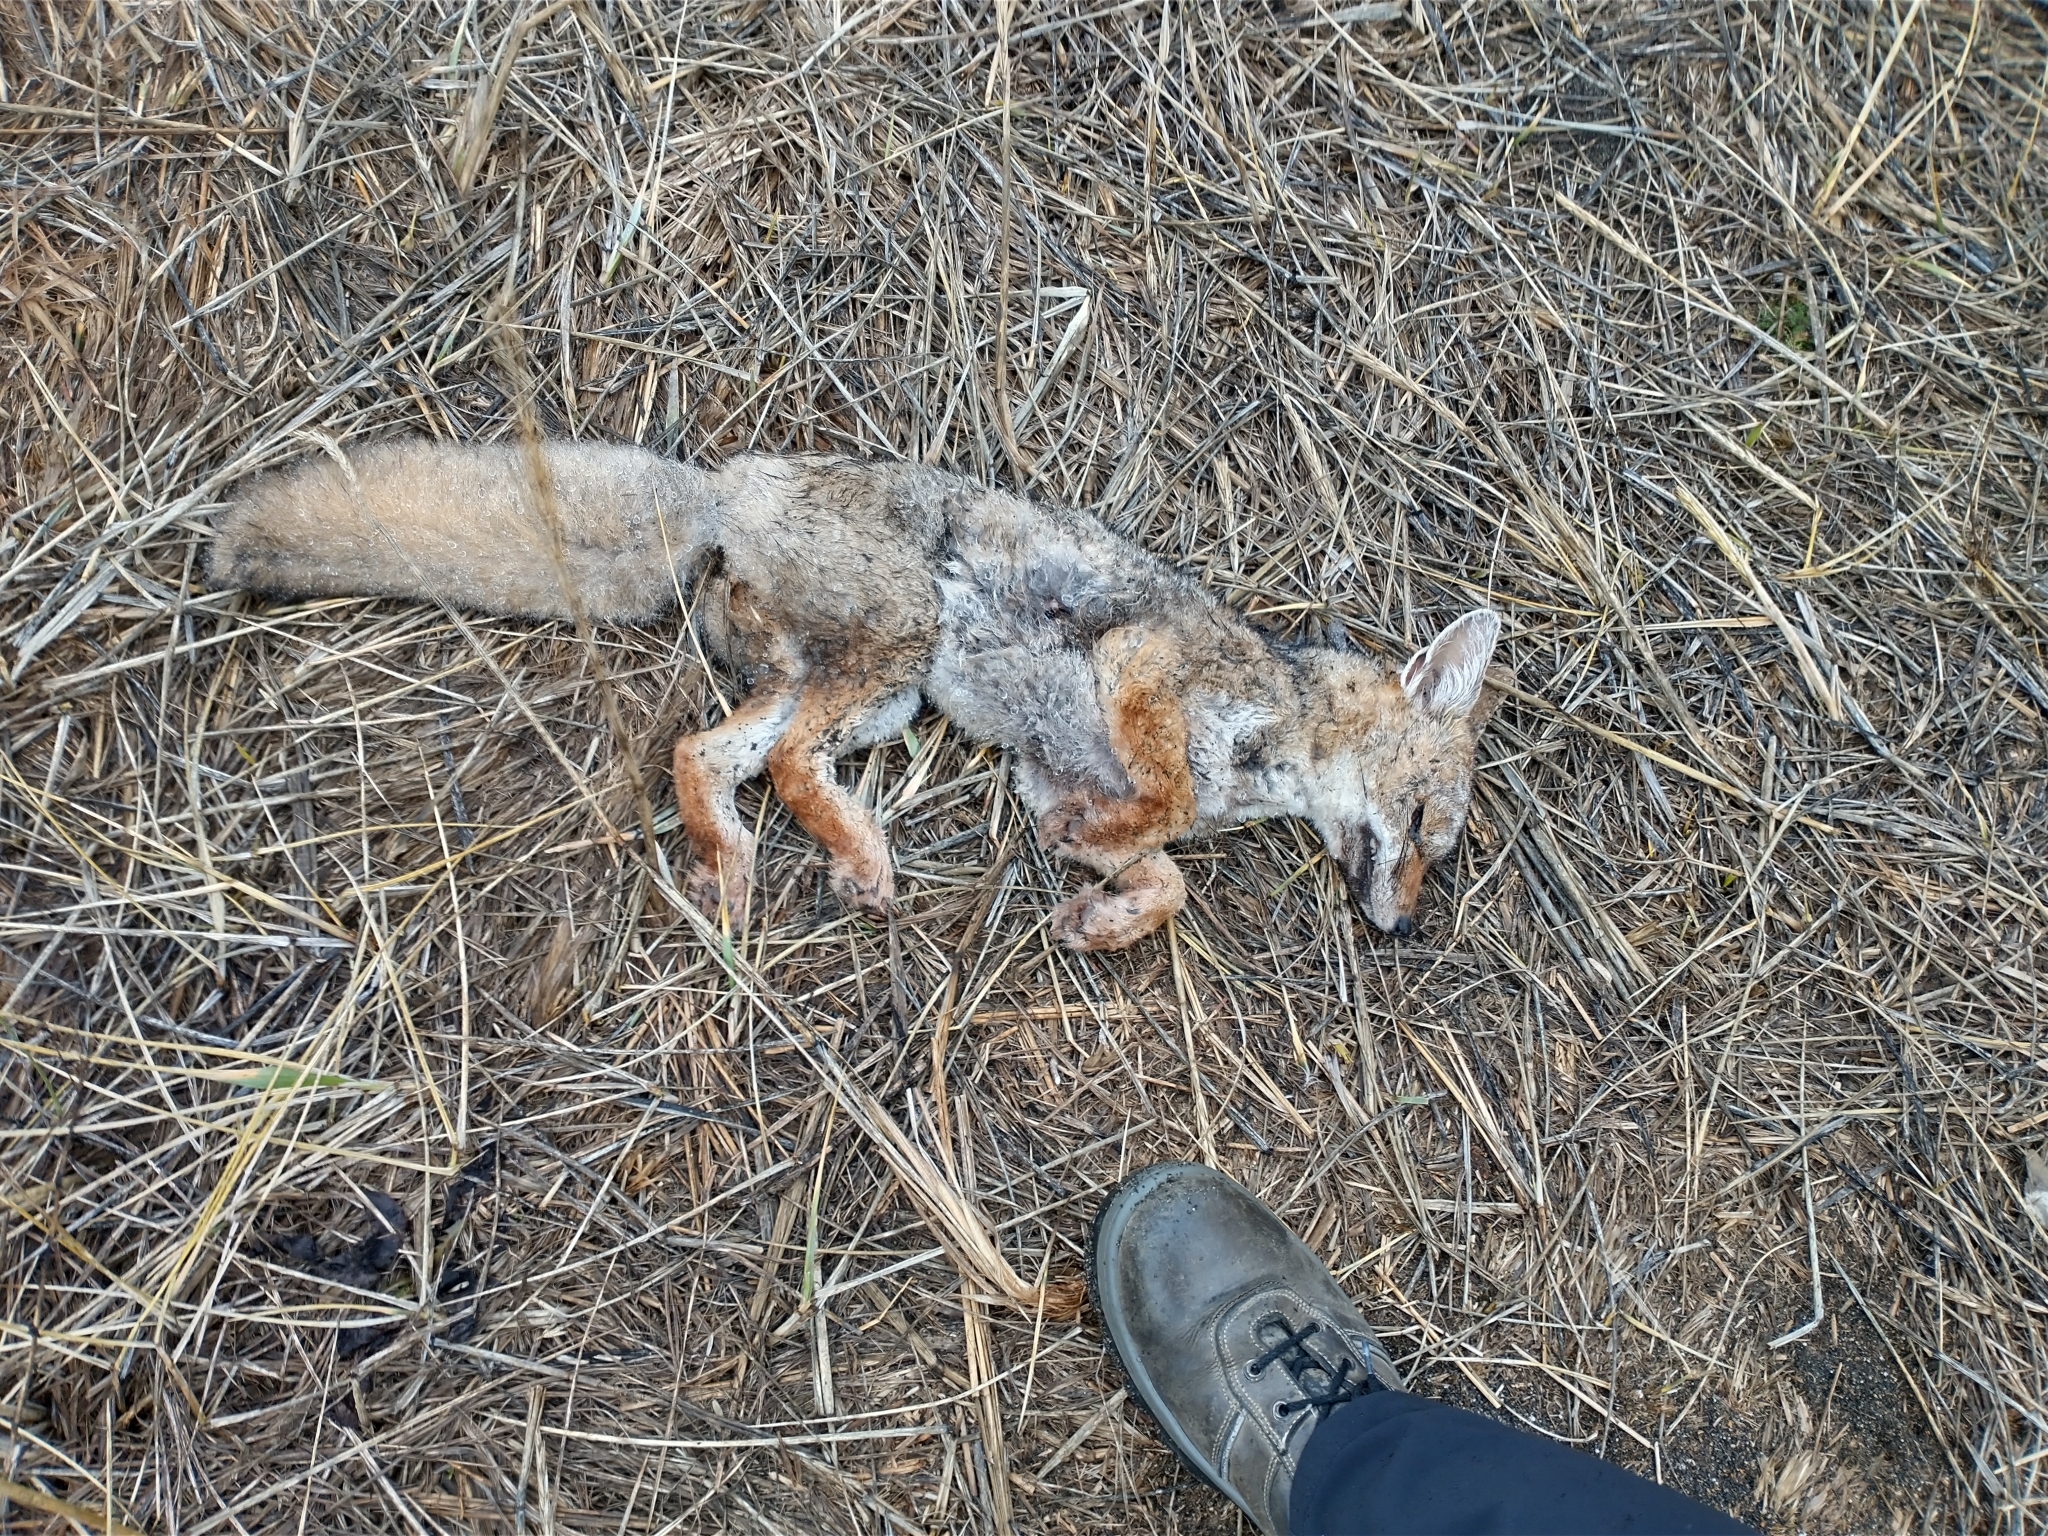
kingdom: Animalia
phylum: Chordata
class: Mammalia
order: Carnivora
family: Canidae
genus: Lycalopex
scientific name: Lycalopex gymnocercus
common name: Pampas fox
